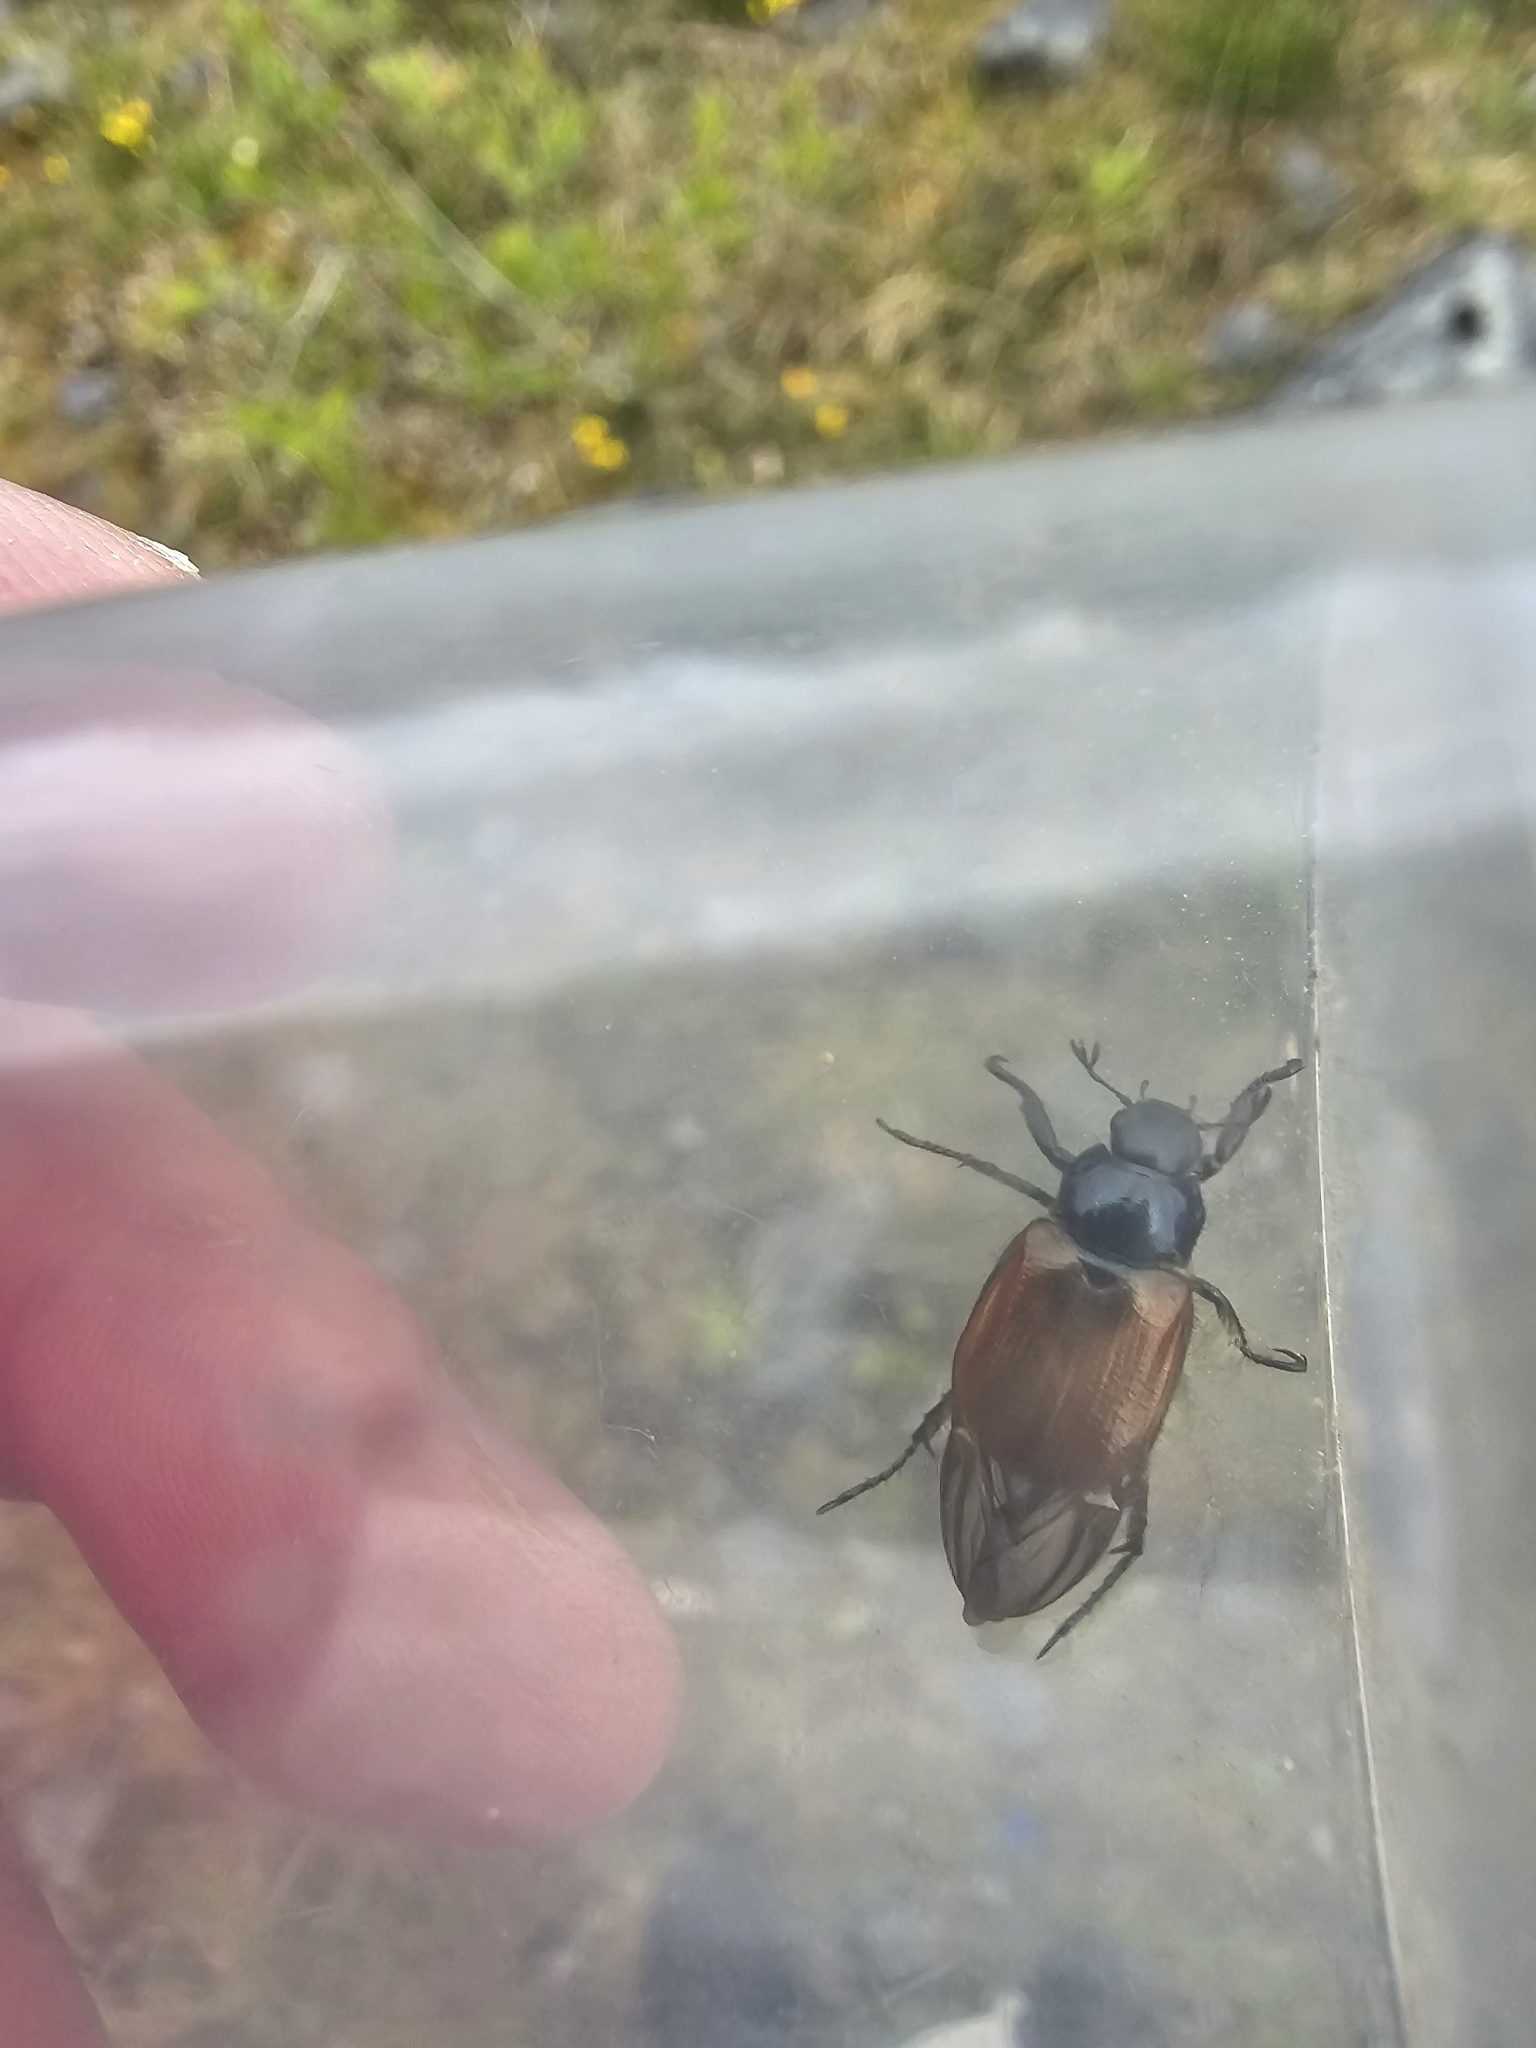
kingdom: Animalia
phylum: Arthropoda
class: Insecta
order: Coleoptera
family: Scarabaeidae
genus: Phyllopertha
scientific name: Phyllopertha horticola
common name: Garden chafer
